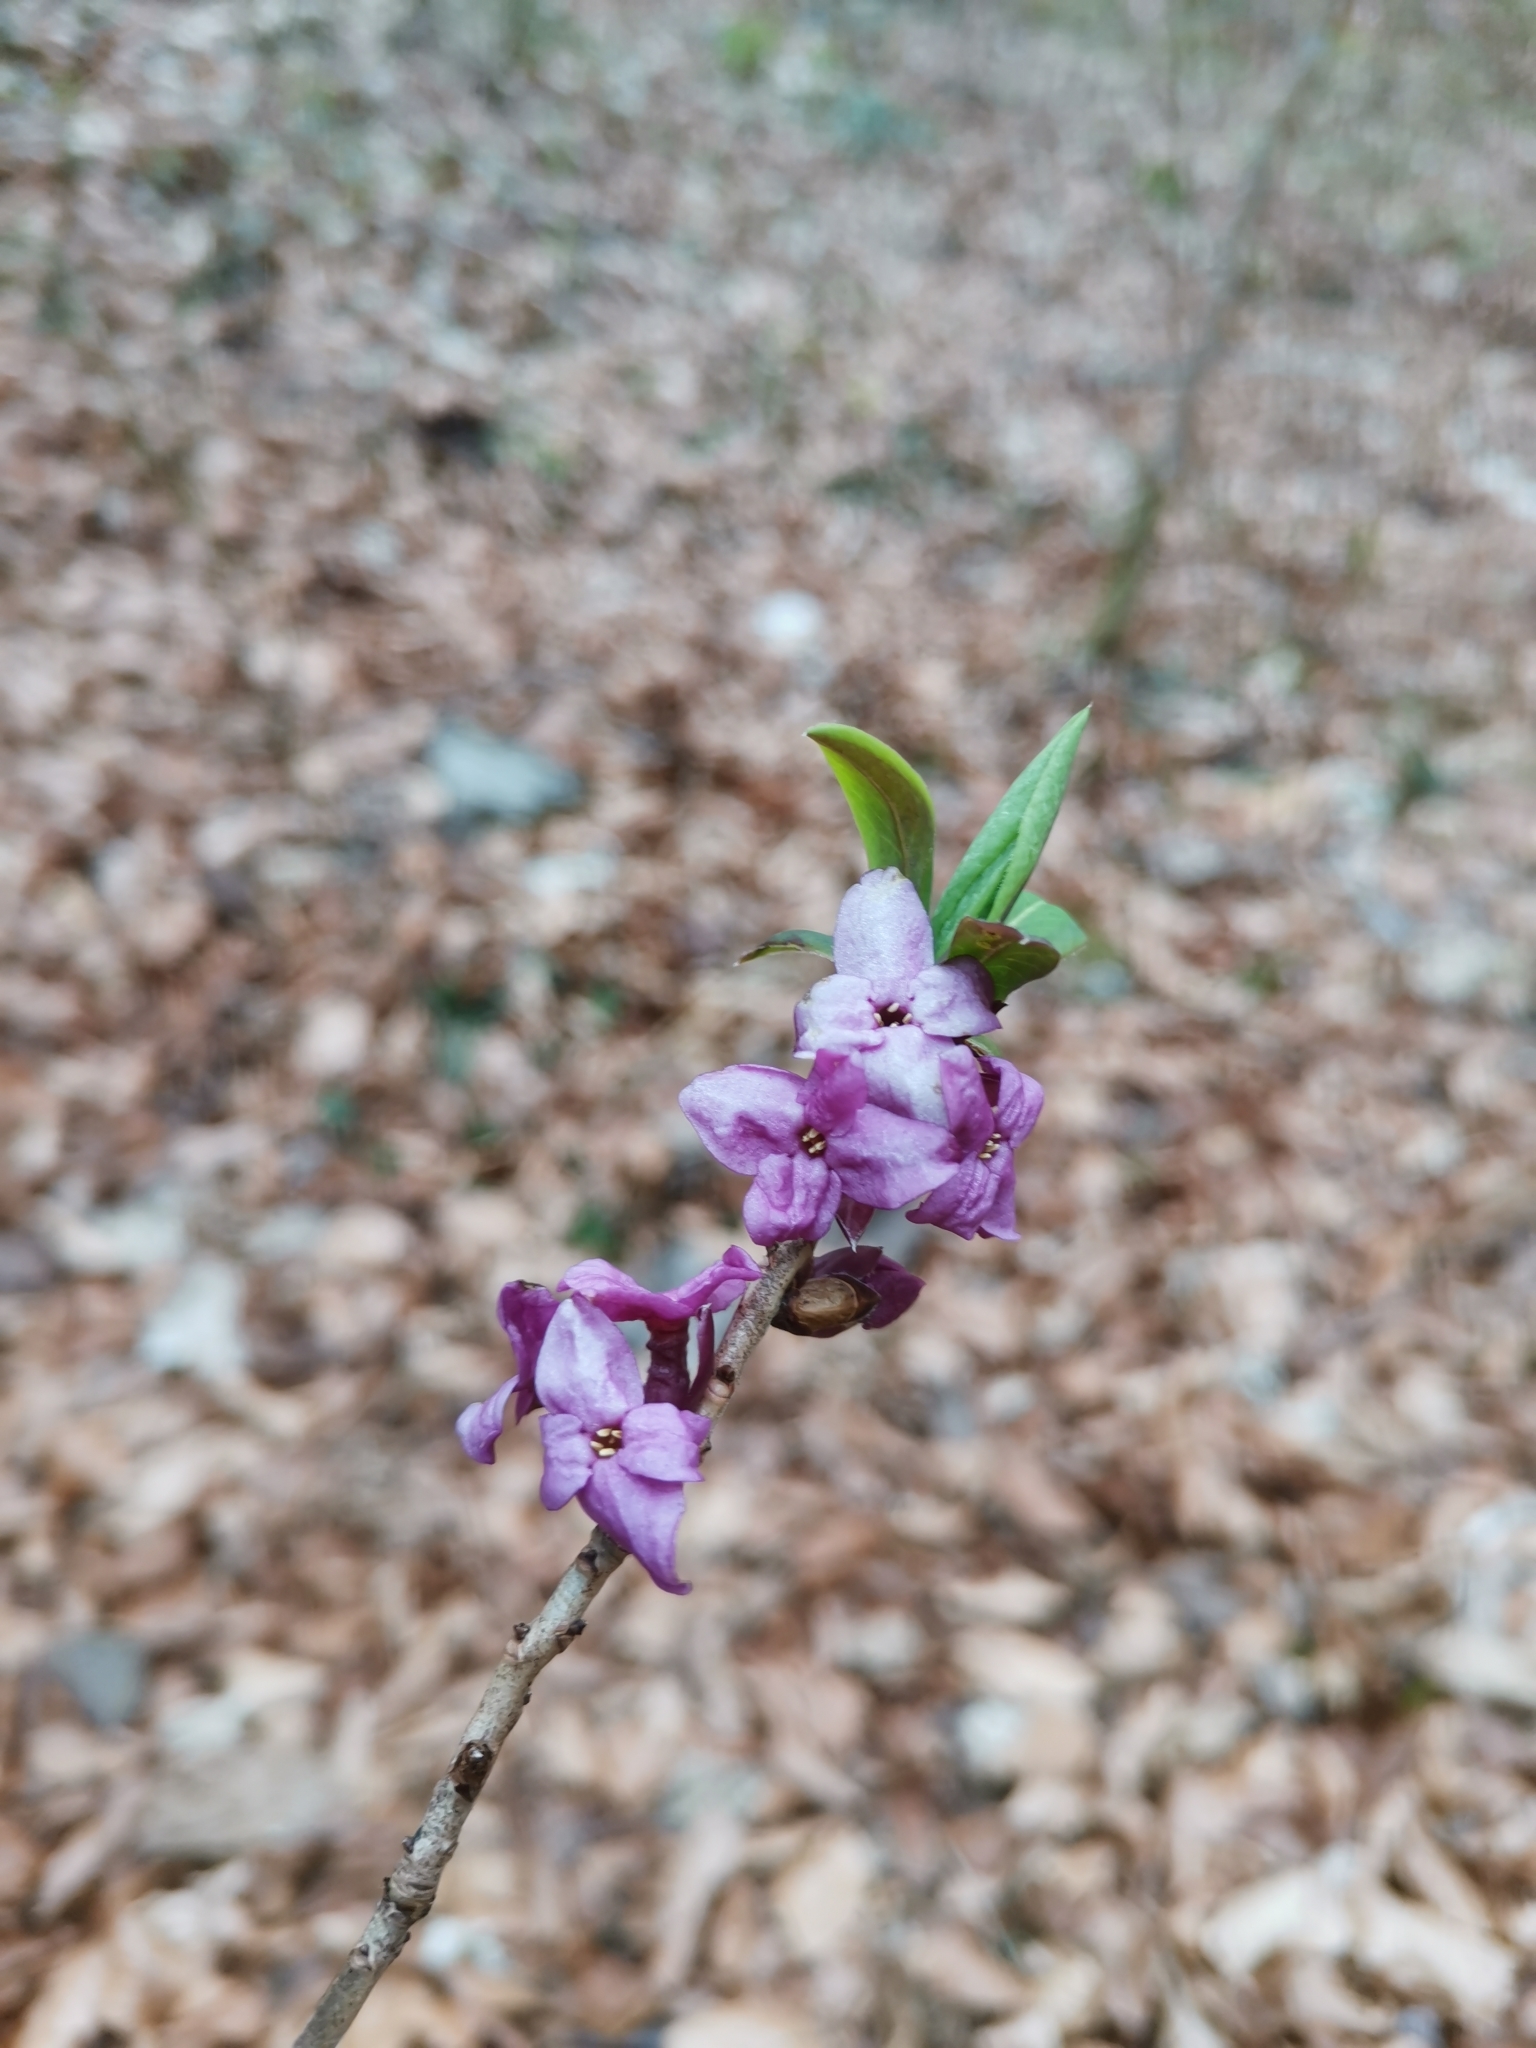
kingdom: Plantae
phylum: Tracheophyta
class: Magnoliopsida
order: Malvales
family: Thymelaeaceae
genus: Daphne
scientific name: Daphne mezereum
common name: Mezereon
